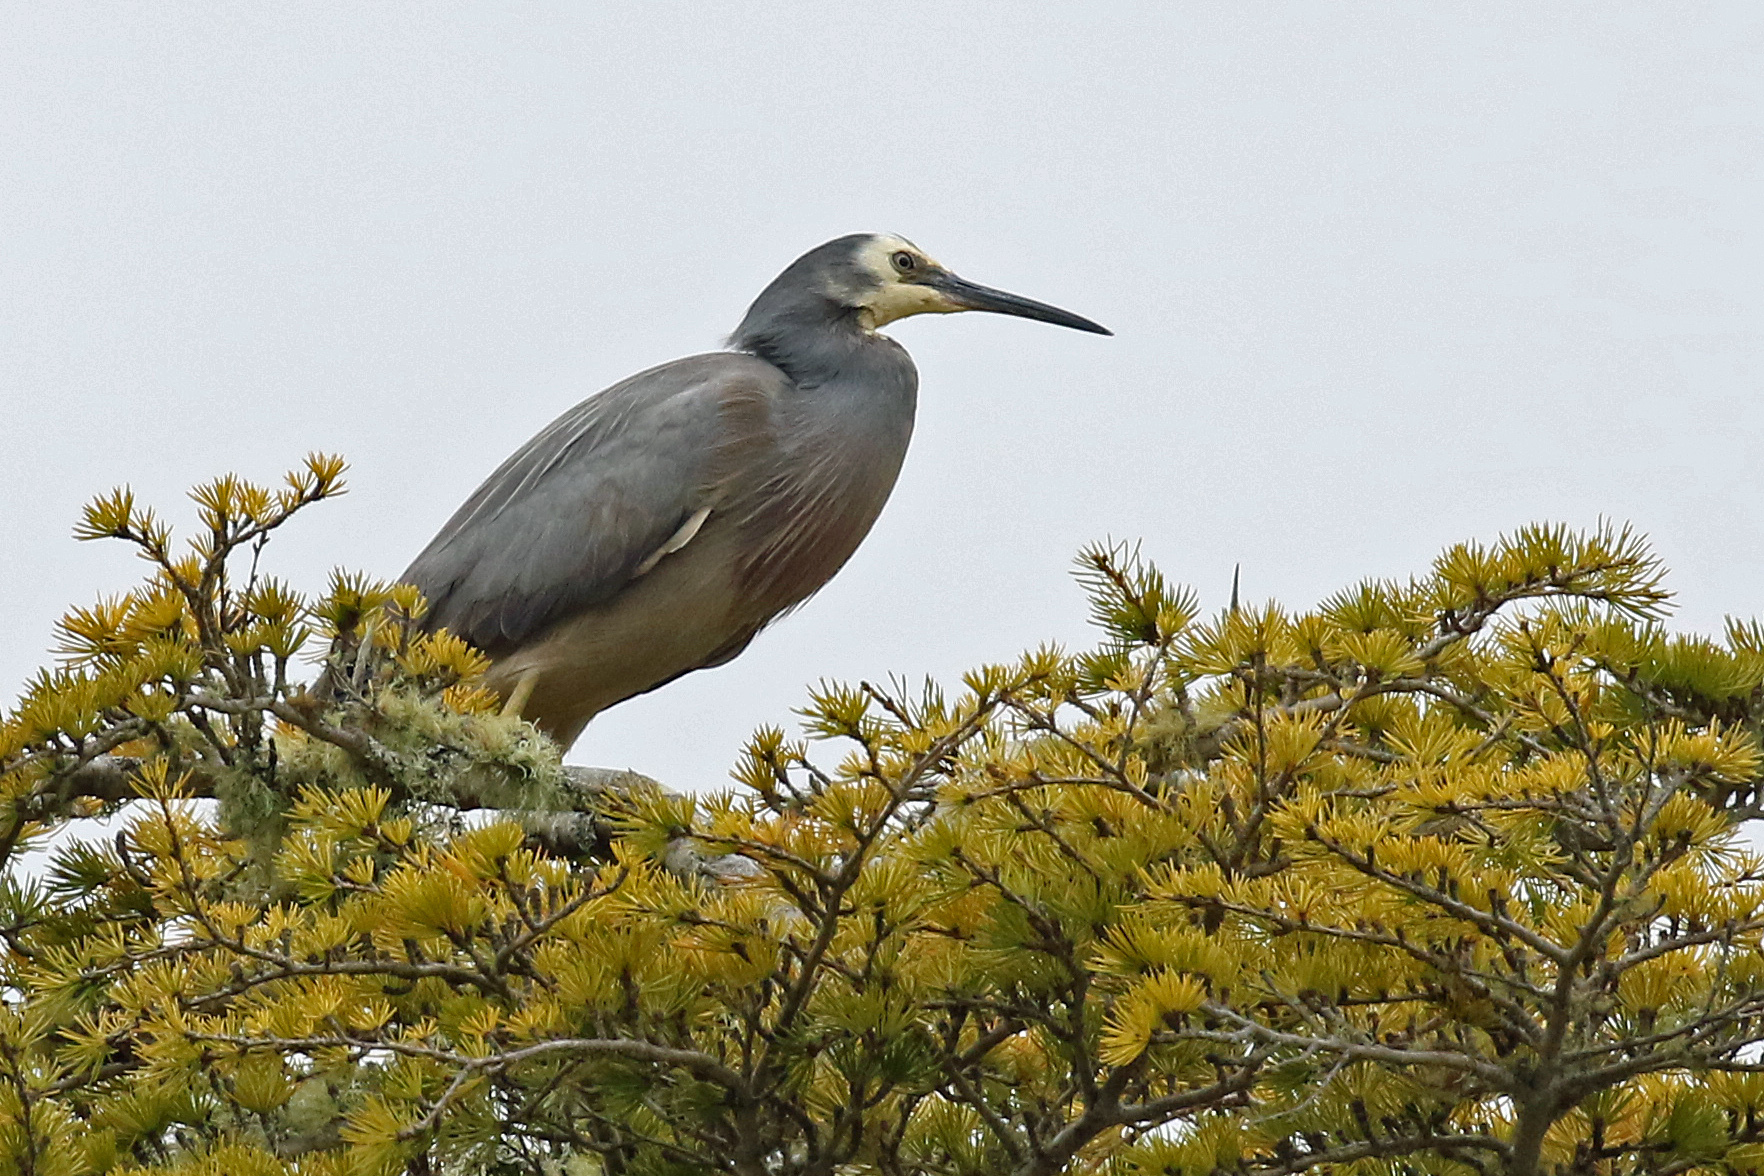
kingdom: Animalia
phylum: Chordata
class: Aves
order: Pelecaniformes
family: Ardeidae
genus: Egretta
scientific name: Egretta novaehollandiae
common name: White-faced heron
